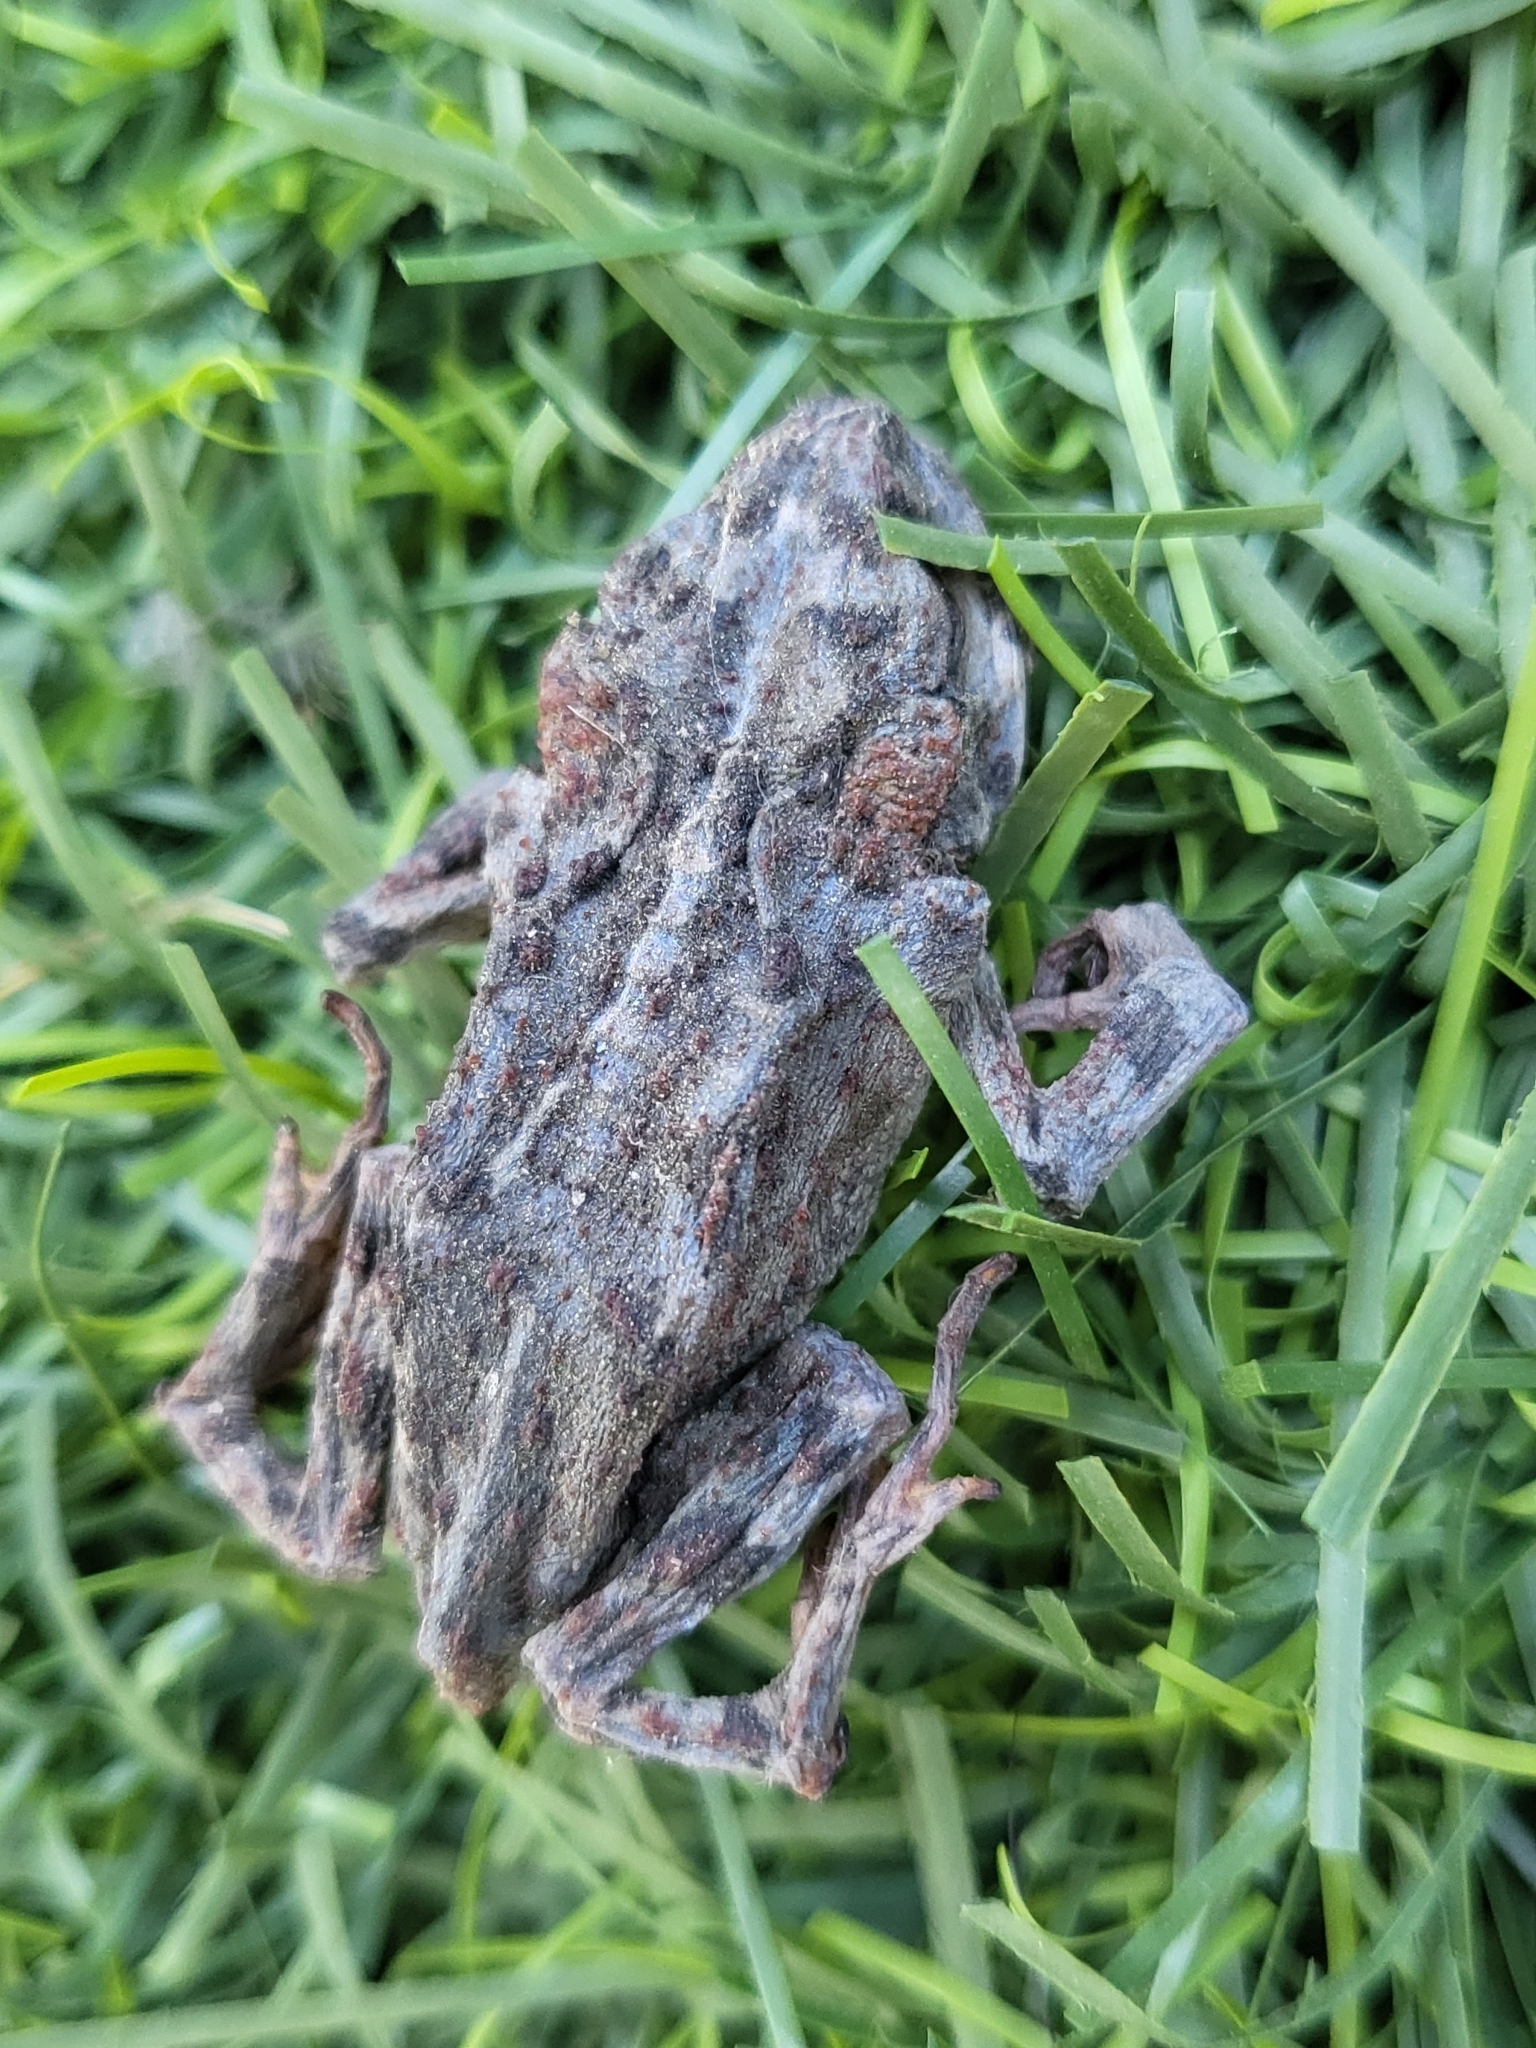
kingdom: Animalia
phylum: Chordata
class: Amphibia
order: Anura
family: Bufonidae
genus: Anaxyrus
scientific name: Anaxyrus boreas
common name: Western toad
